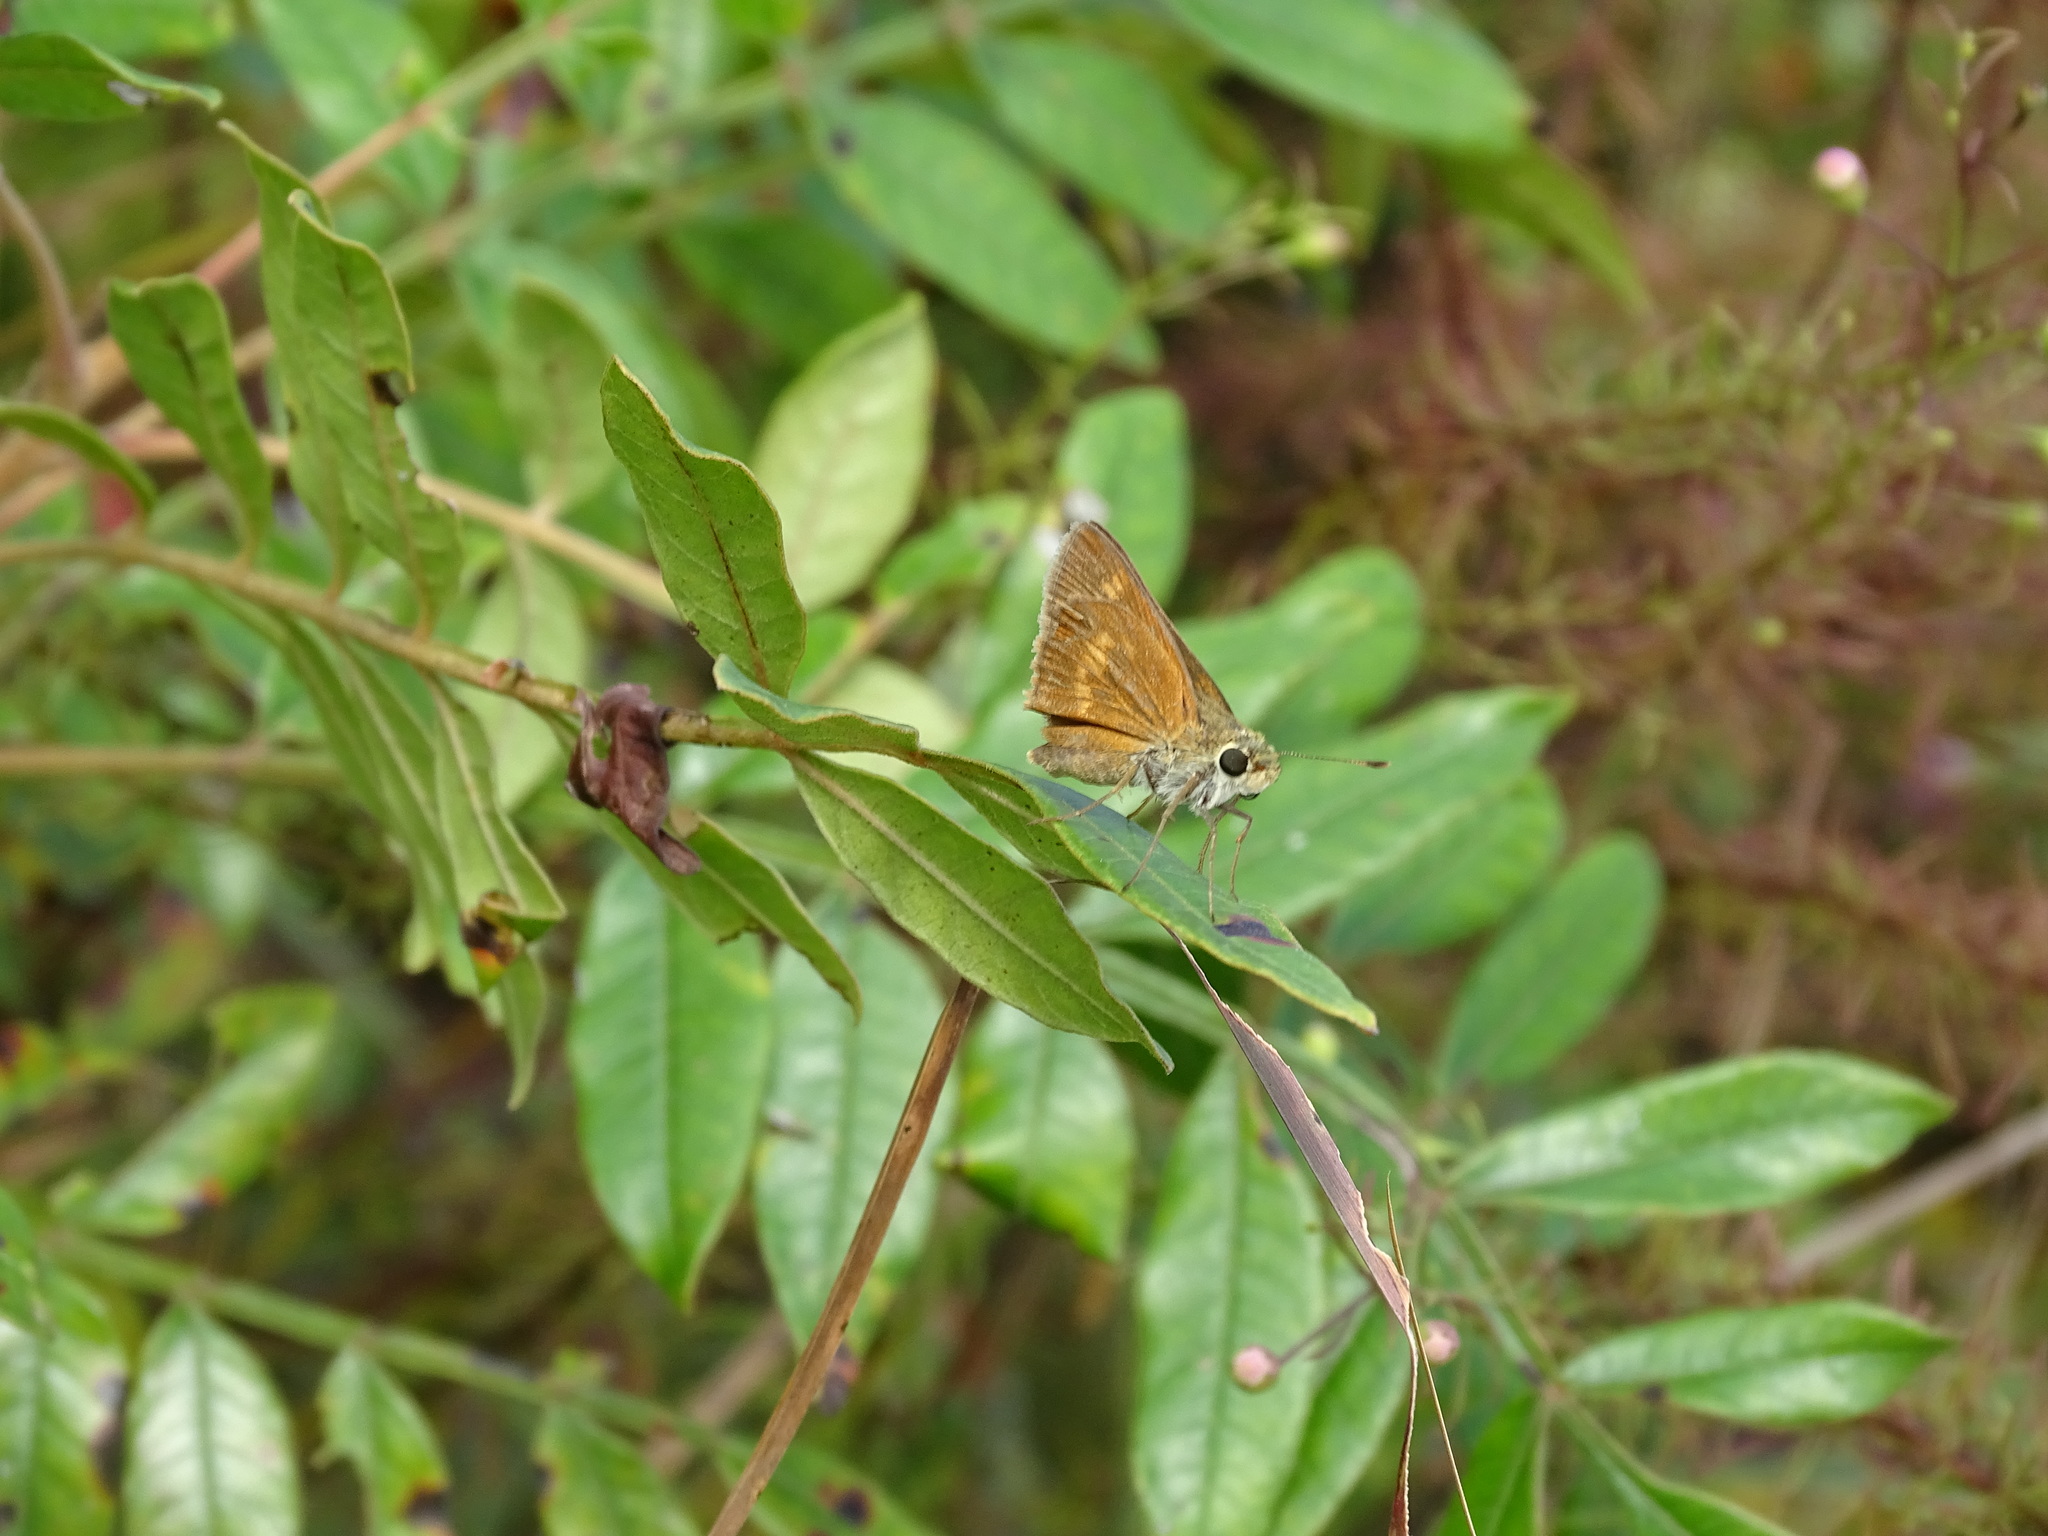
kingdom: Animalia
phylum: Arthropoda
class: Insecta
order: Lepidoptera
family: Hesperiidae
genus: Polites
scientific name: Polites otho
